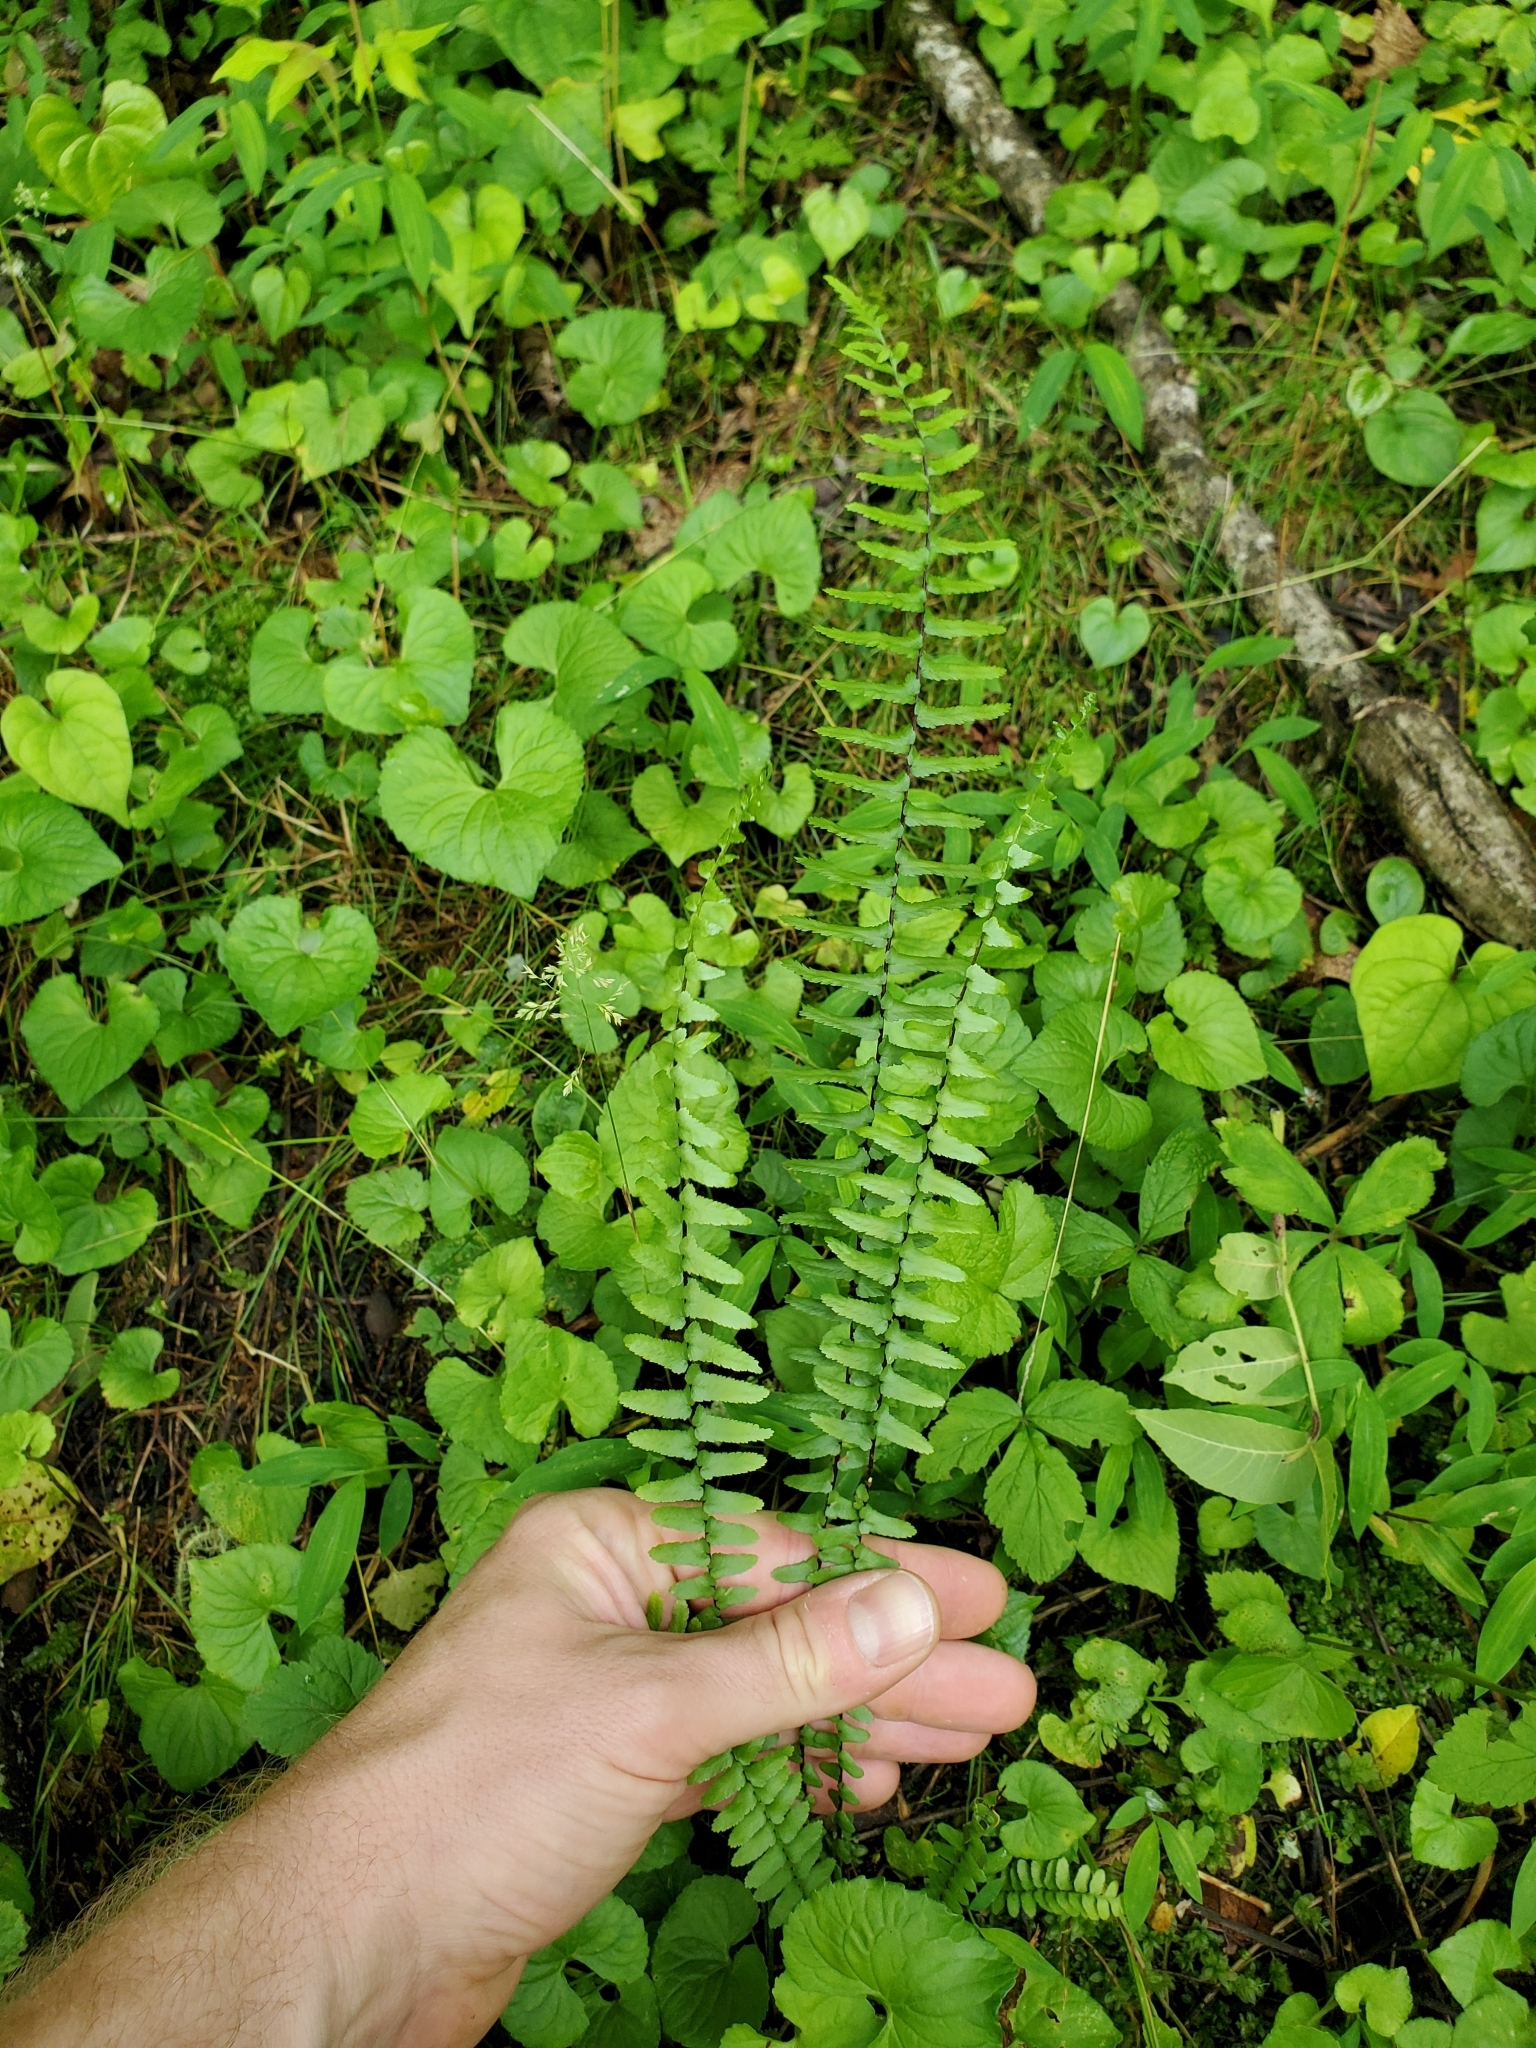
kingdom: Plantae
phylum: Tracheophyta
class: Polypodiopsida
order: Polypodiales
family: Aspleniaceae
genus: Asplenium
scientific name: Asplenium platyneuron
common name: Ebony spleenwort
